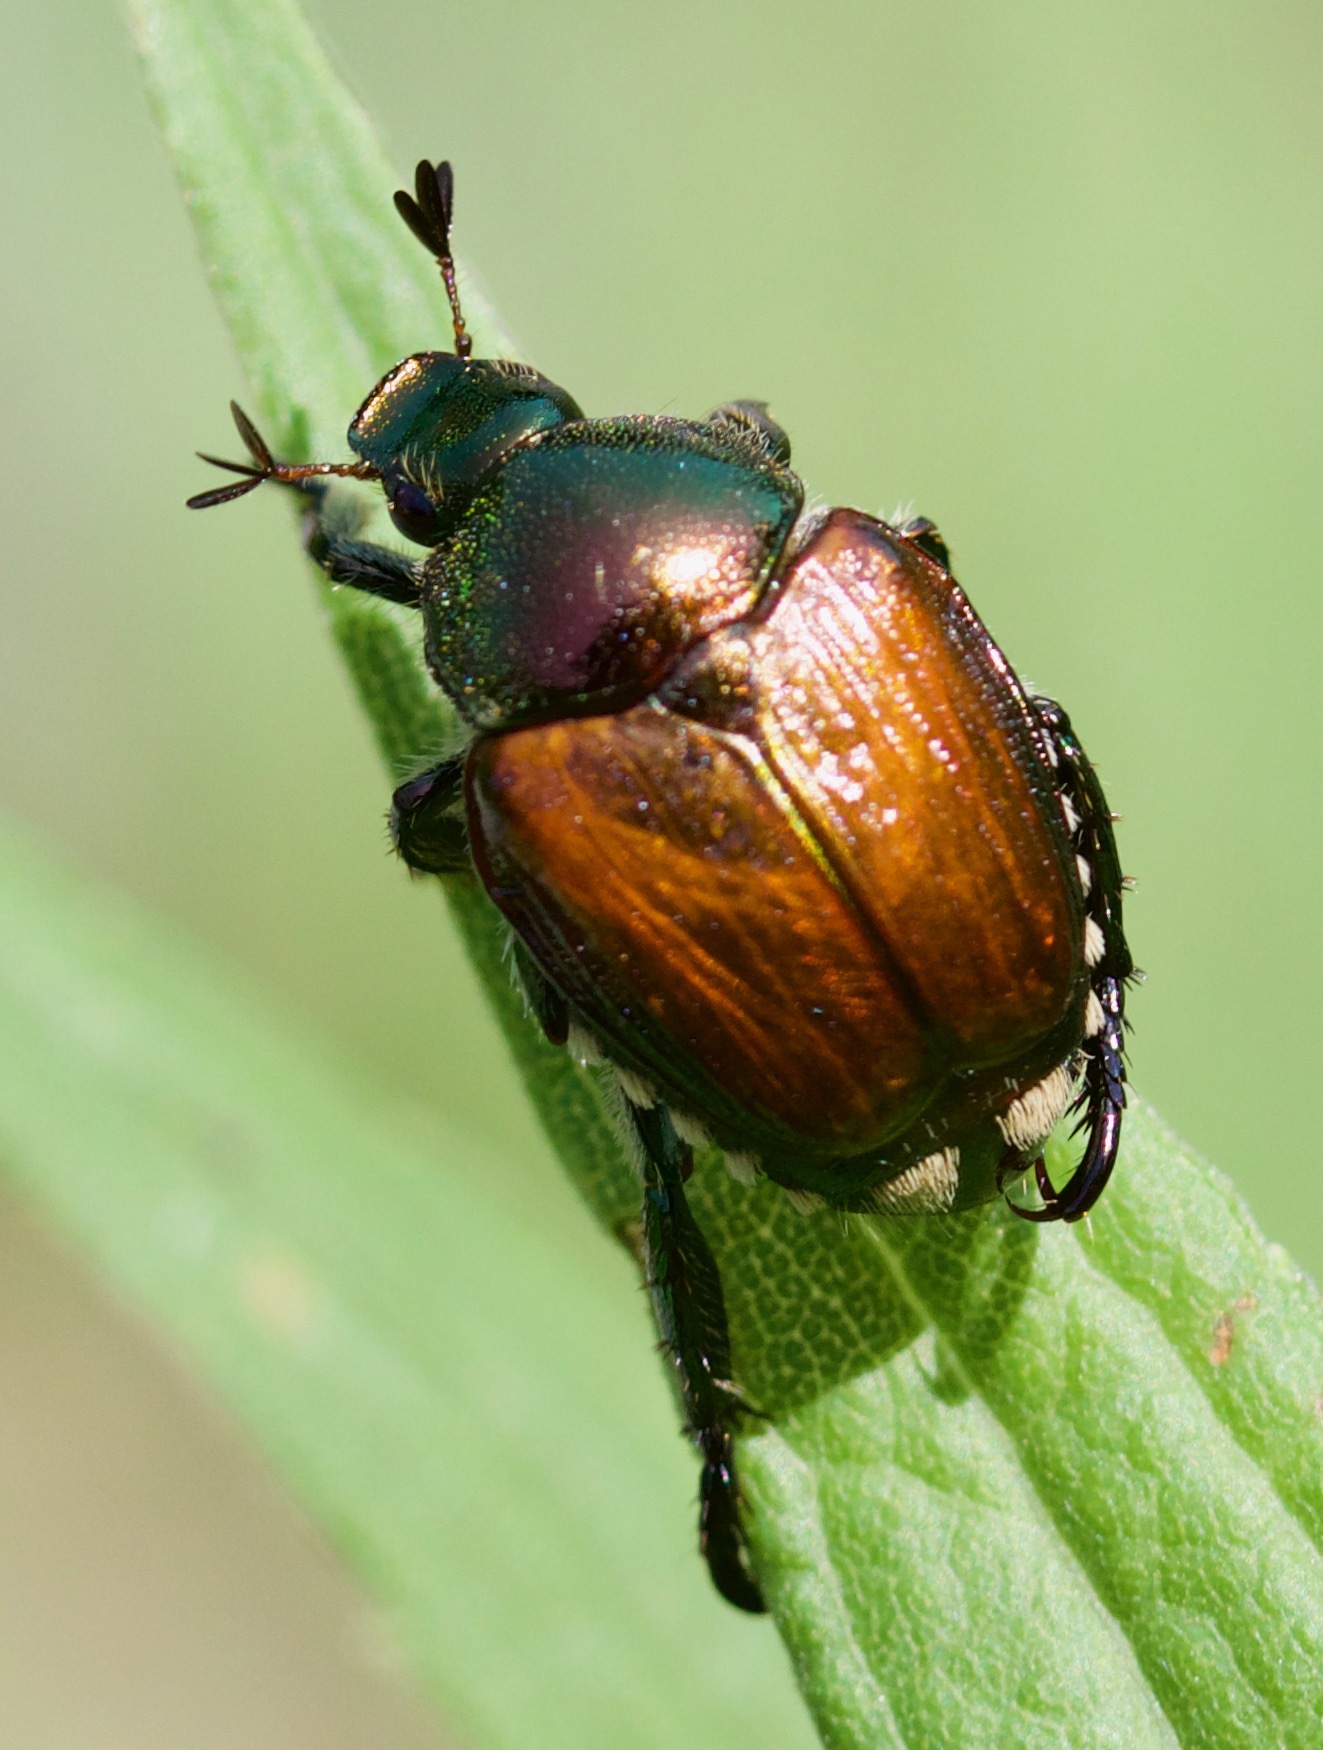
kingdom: Animalia
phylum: Arthropoda
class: Insecta
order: Coleoptera
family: Scarabaeidae
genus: Popillia
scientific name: Popillia japonica
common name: Japanese beetle
